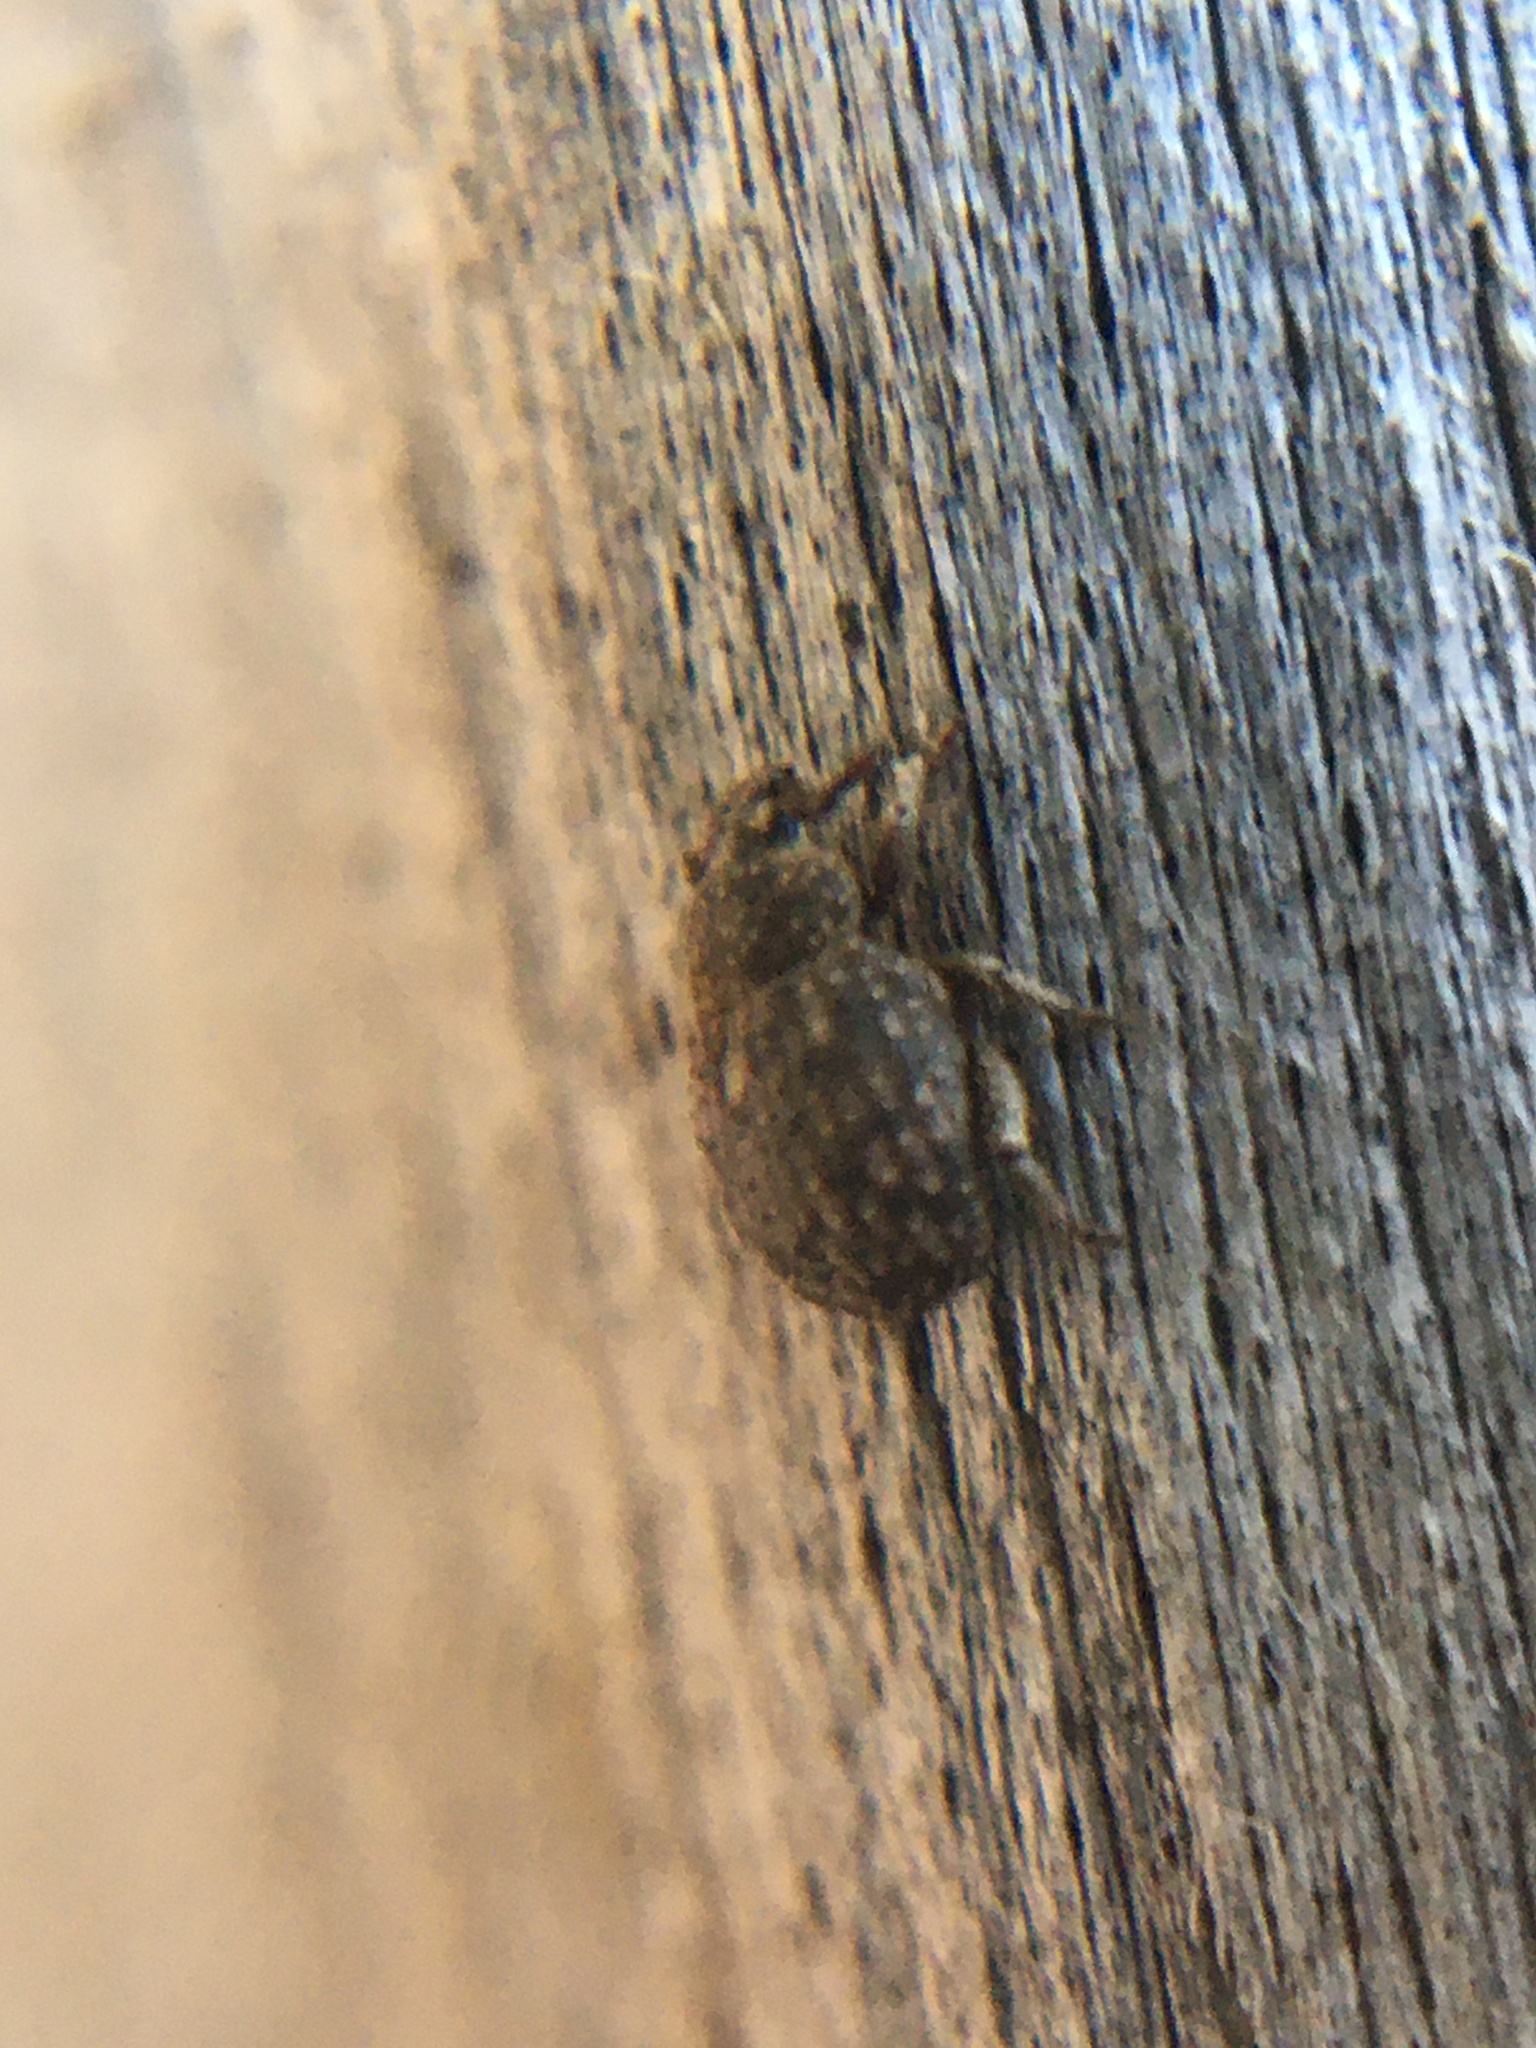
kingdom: Animalia
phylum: Arthropoda
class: Insecta
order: Coleoptera
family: Curculionidae
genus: Afrophloeus
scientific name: Afrophloeus spathulatus
